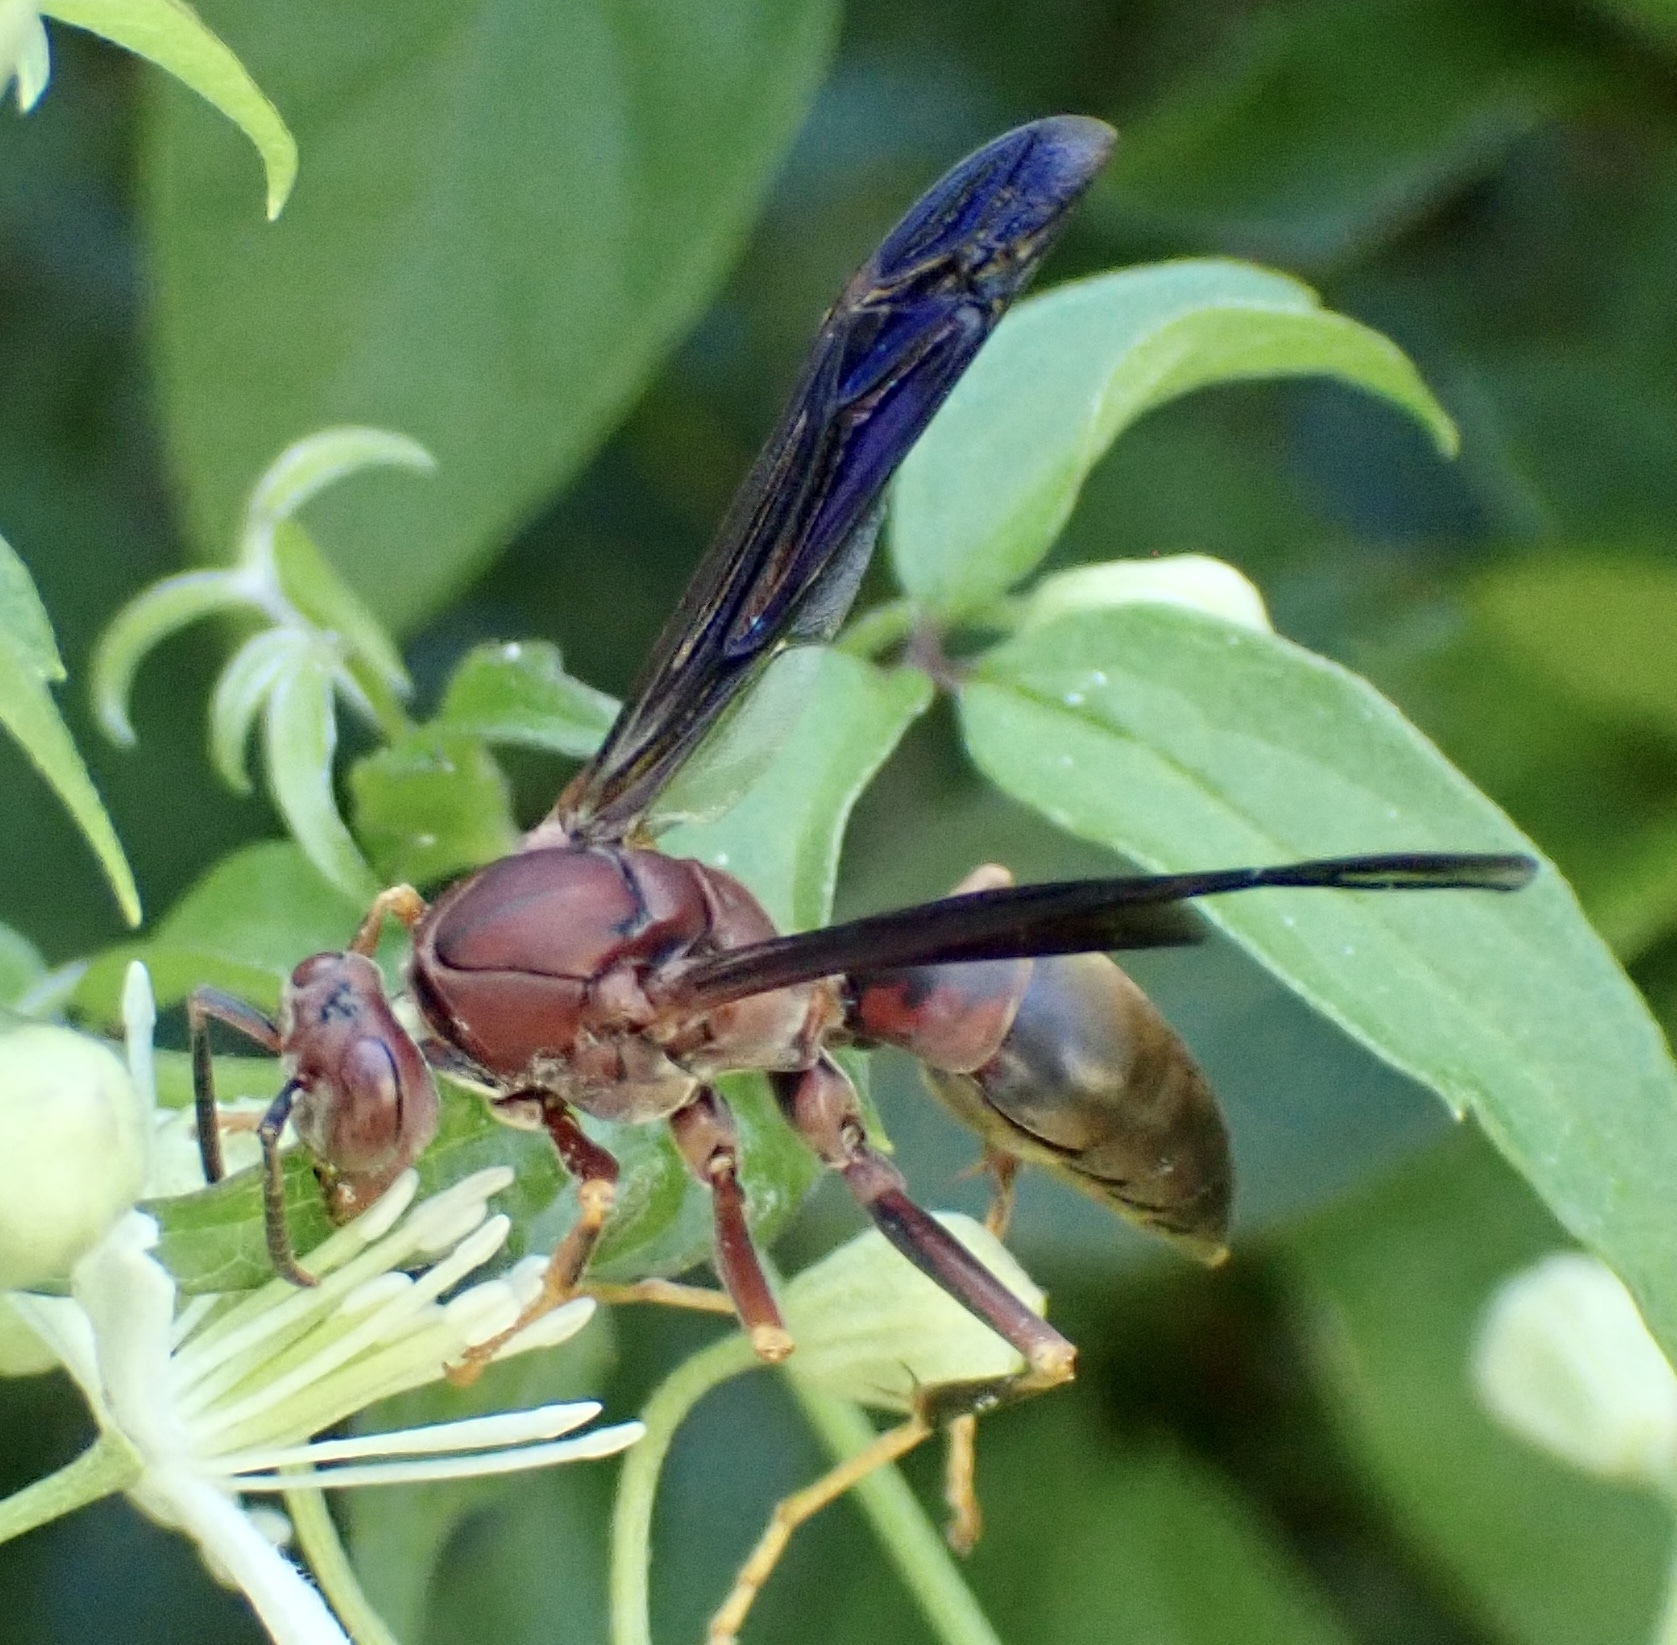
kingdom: Animalia
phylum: Arthropoda
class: Insecta
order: Hymenoptera
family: Eumenidae
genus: Polistes
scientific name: Polistes metricus
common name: Metric paper wasp
